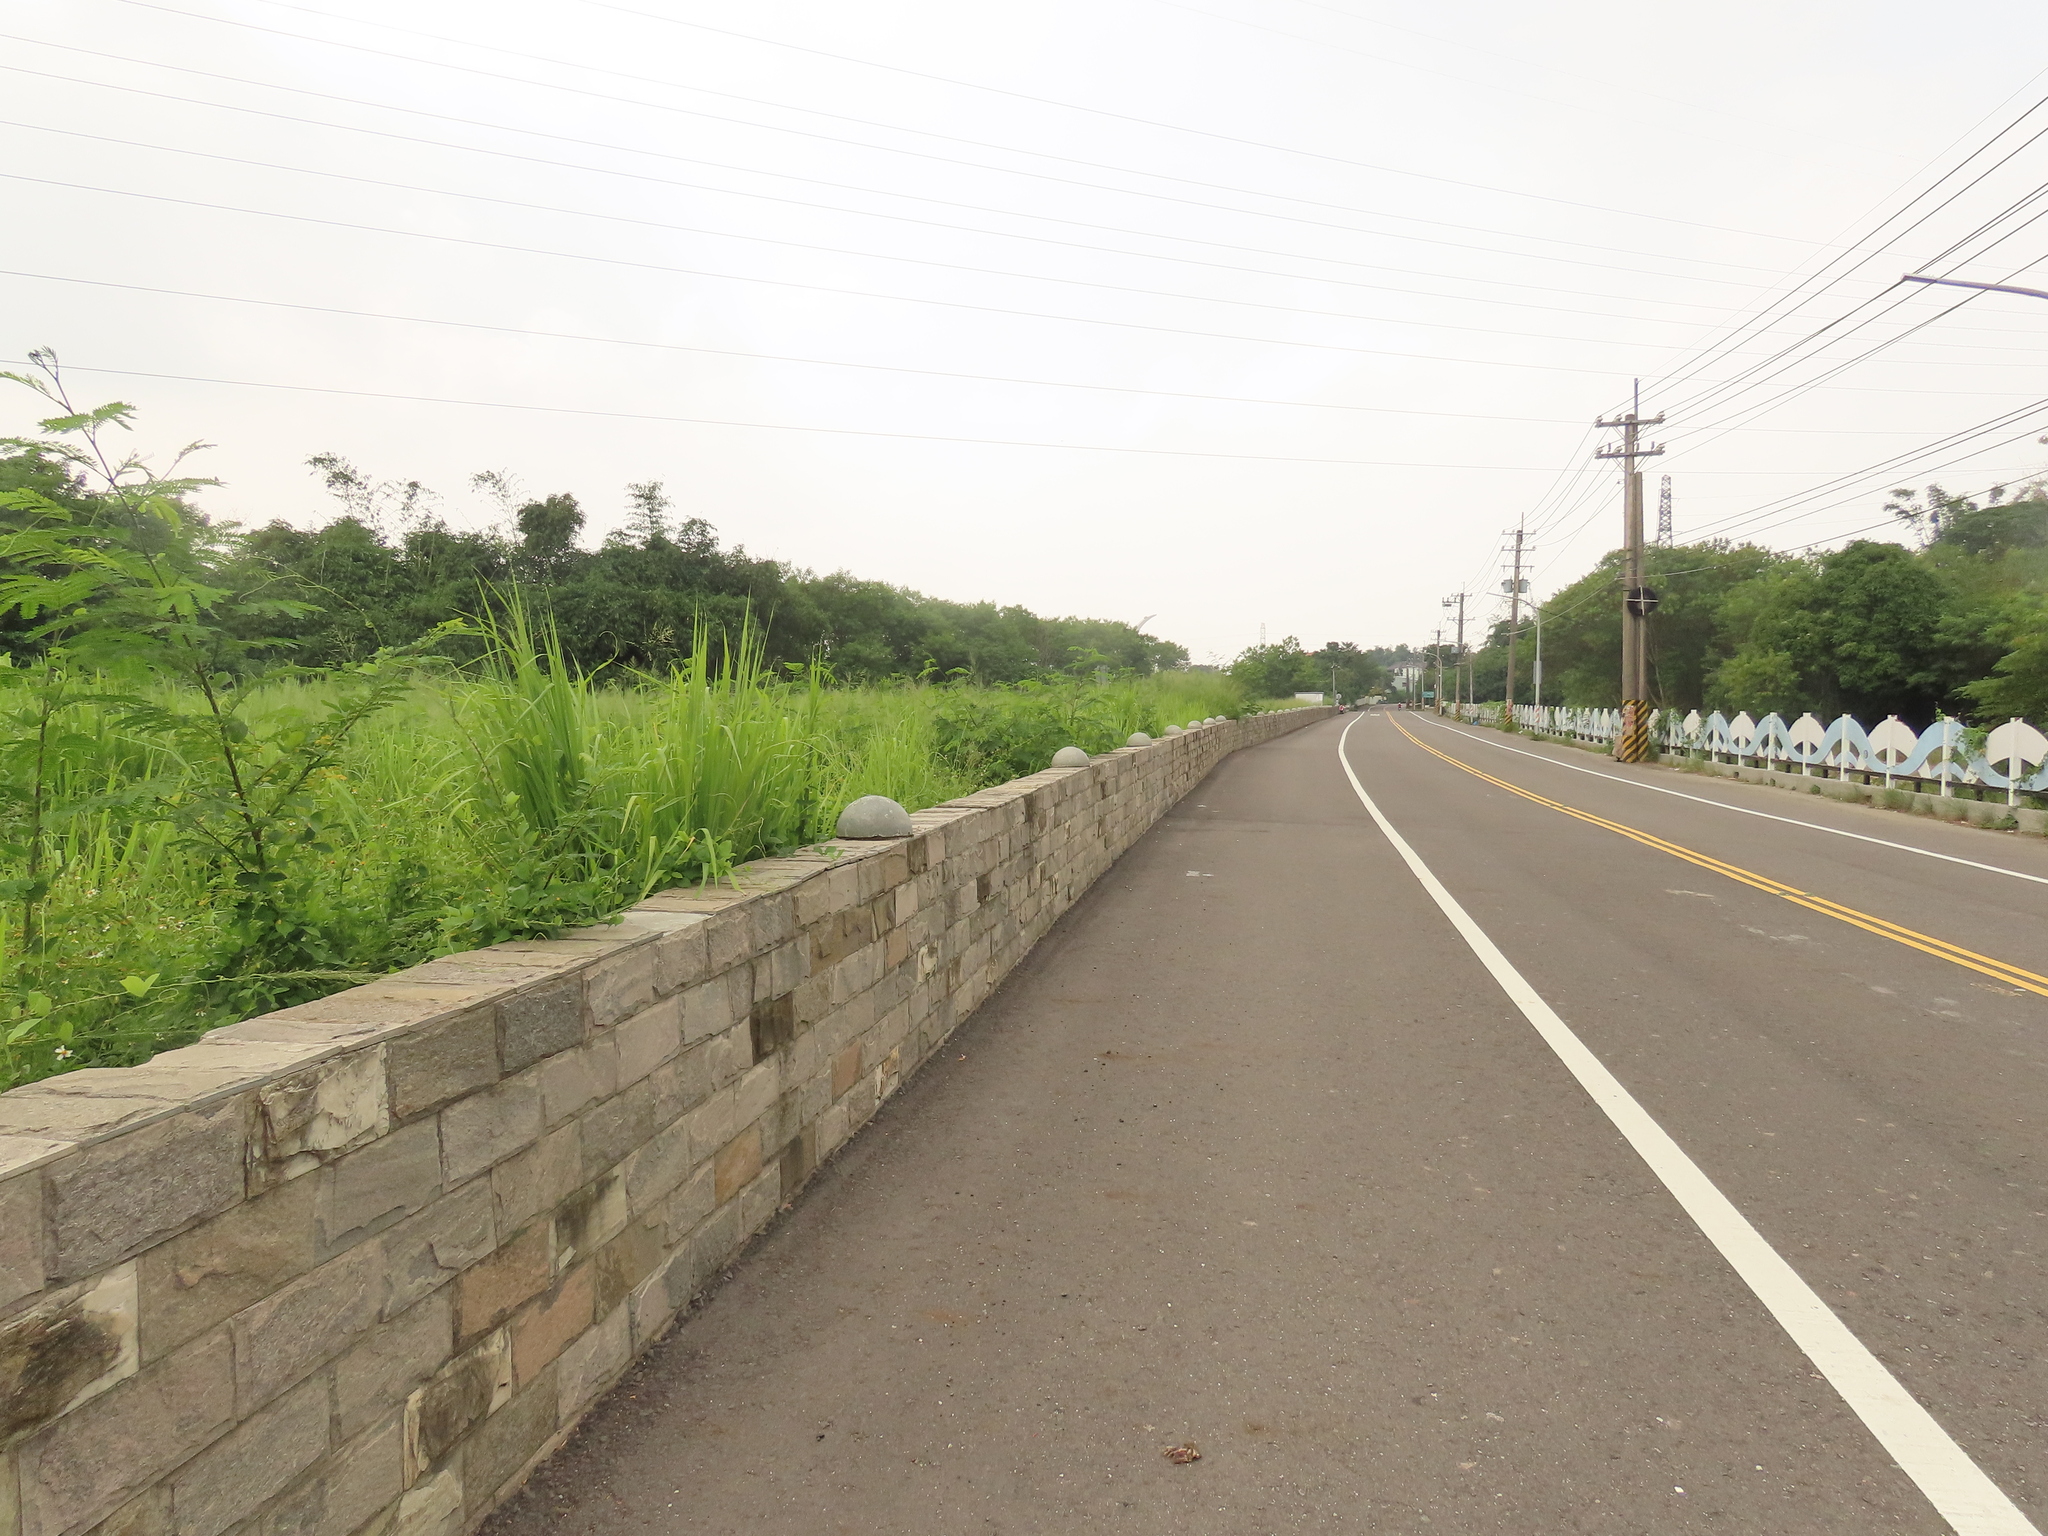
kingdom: Animalia
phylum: Chordata
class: Aves
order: Passeriformes
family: Cisticolidae
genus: Prinia
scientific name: Prinia inornata
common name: Plain prinia
